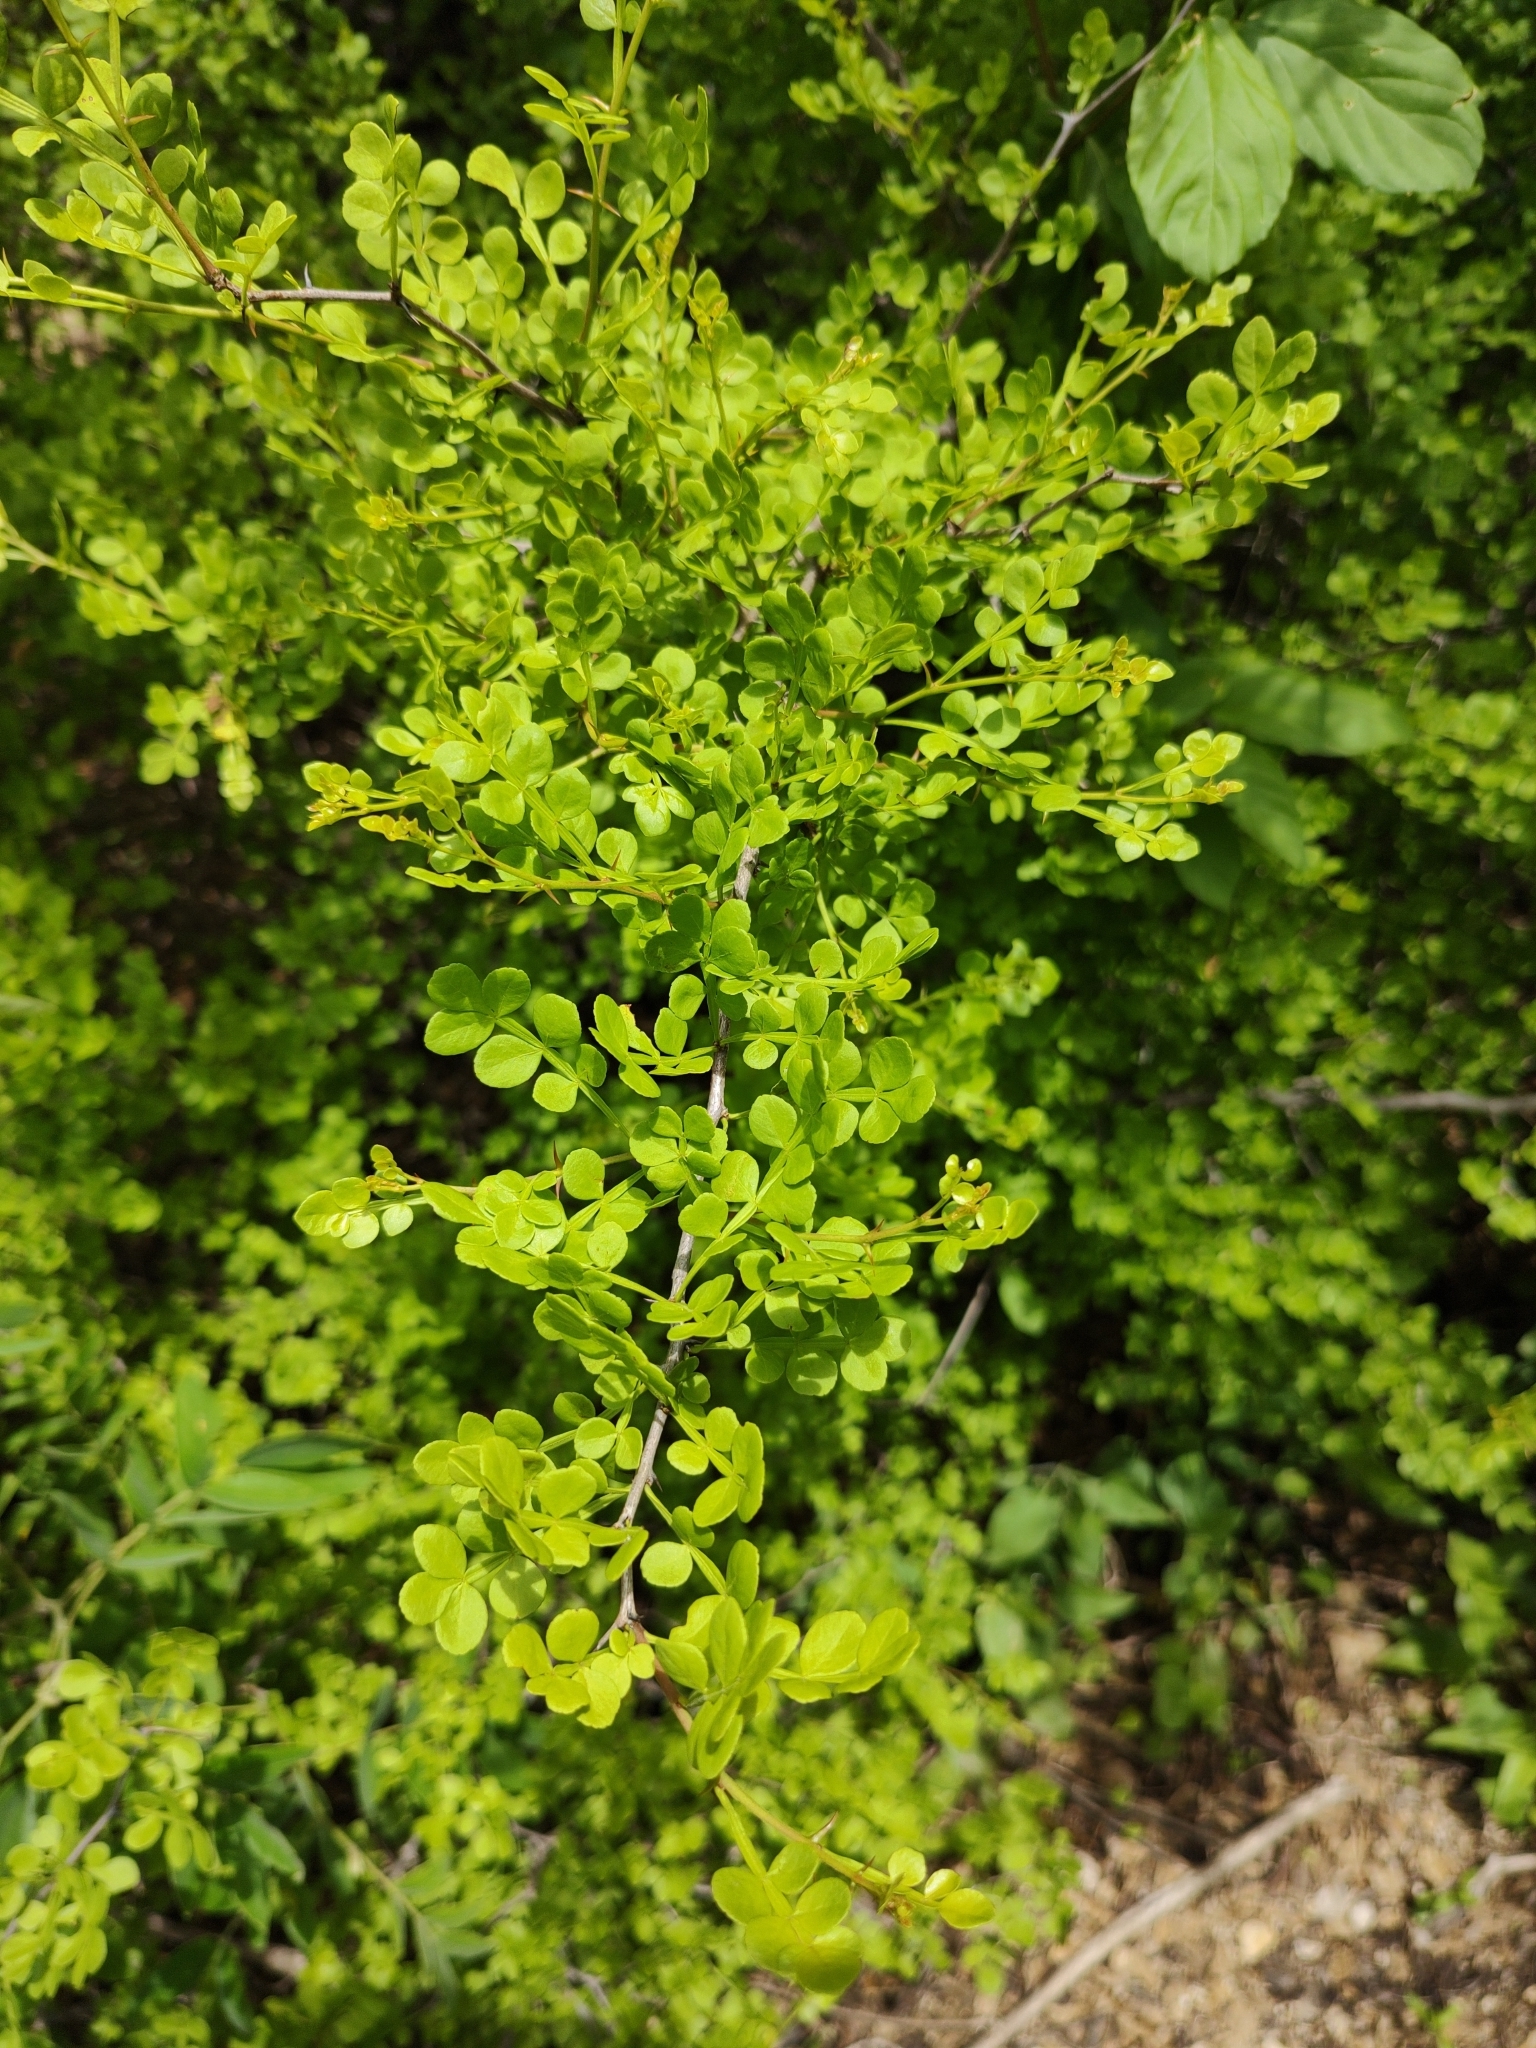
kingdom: Plantae
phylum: Tracheophyta
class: Magnoliopsida
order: Sapindales
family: Rutaceae
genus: Zanthoxylum
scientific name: Zanthoxylum fagara
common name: Lime prickly-ash
